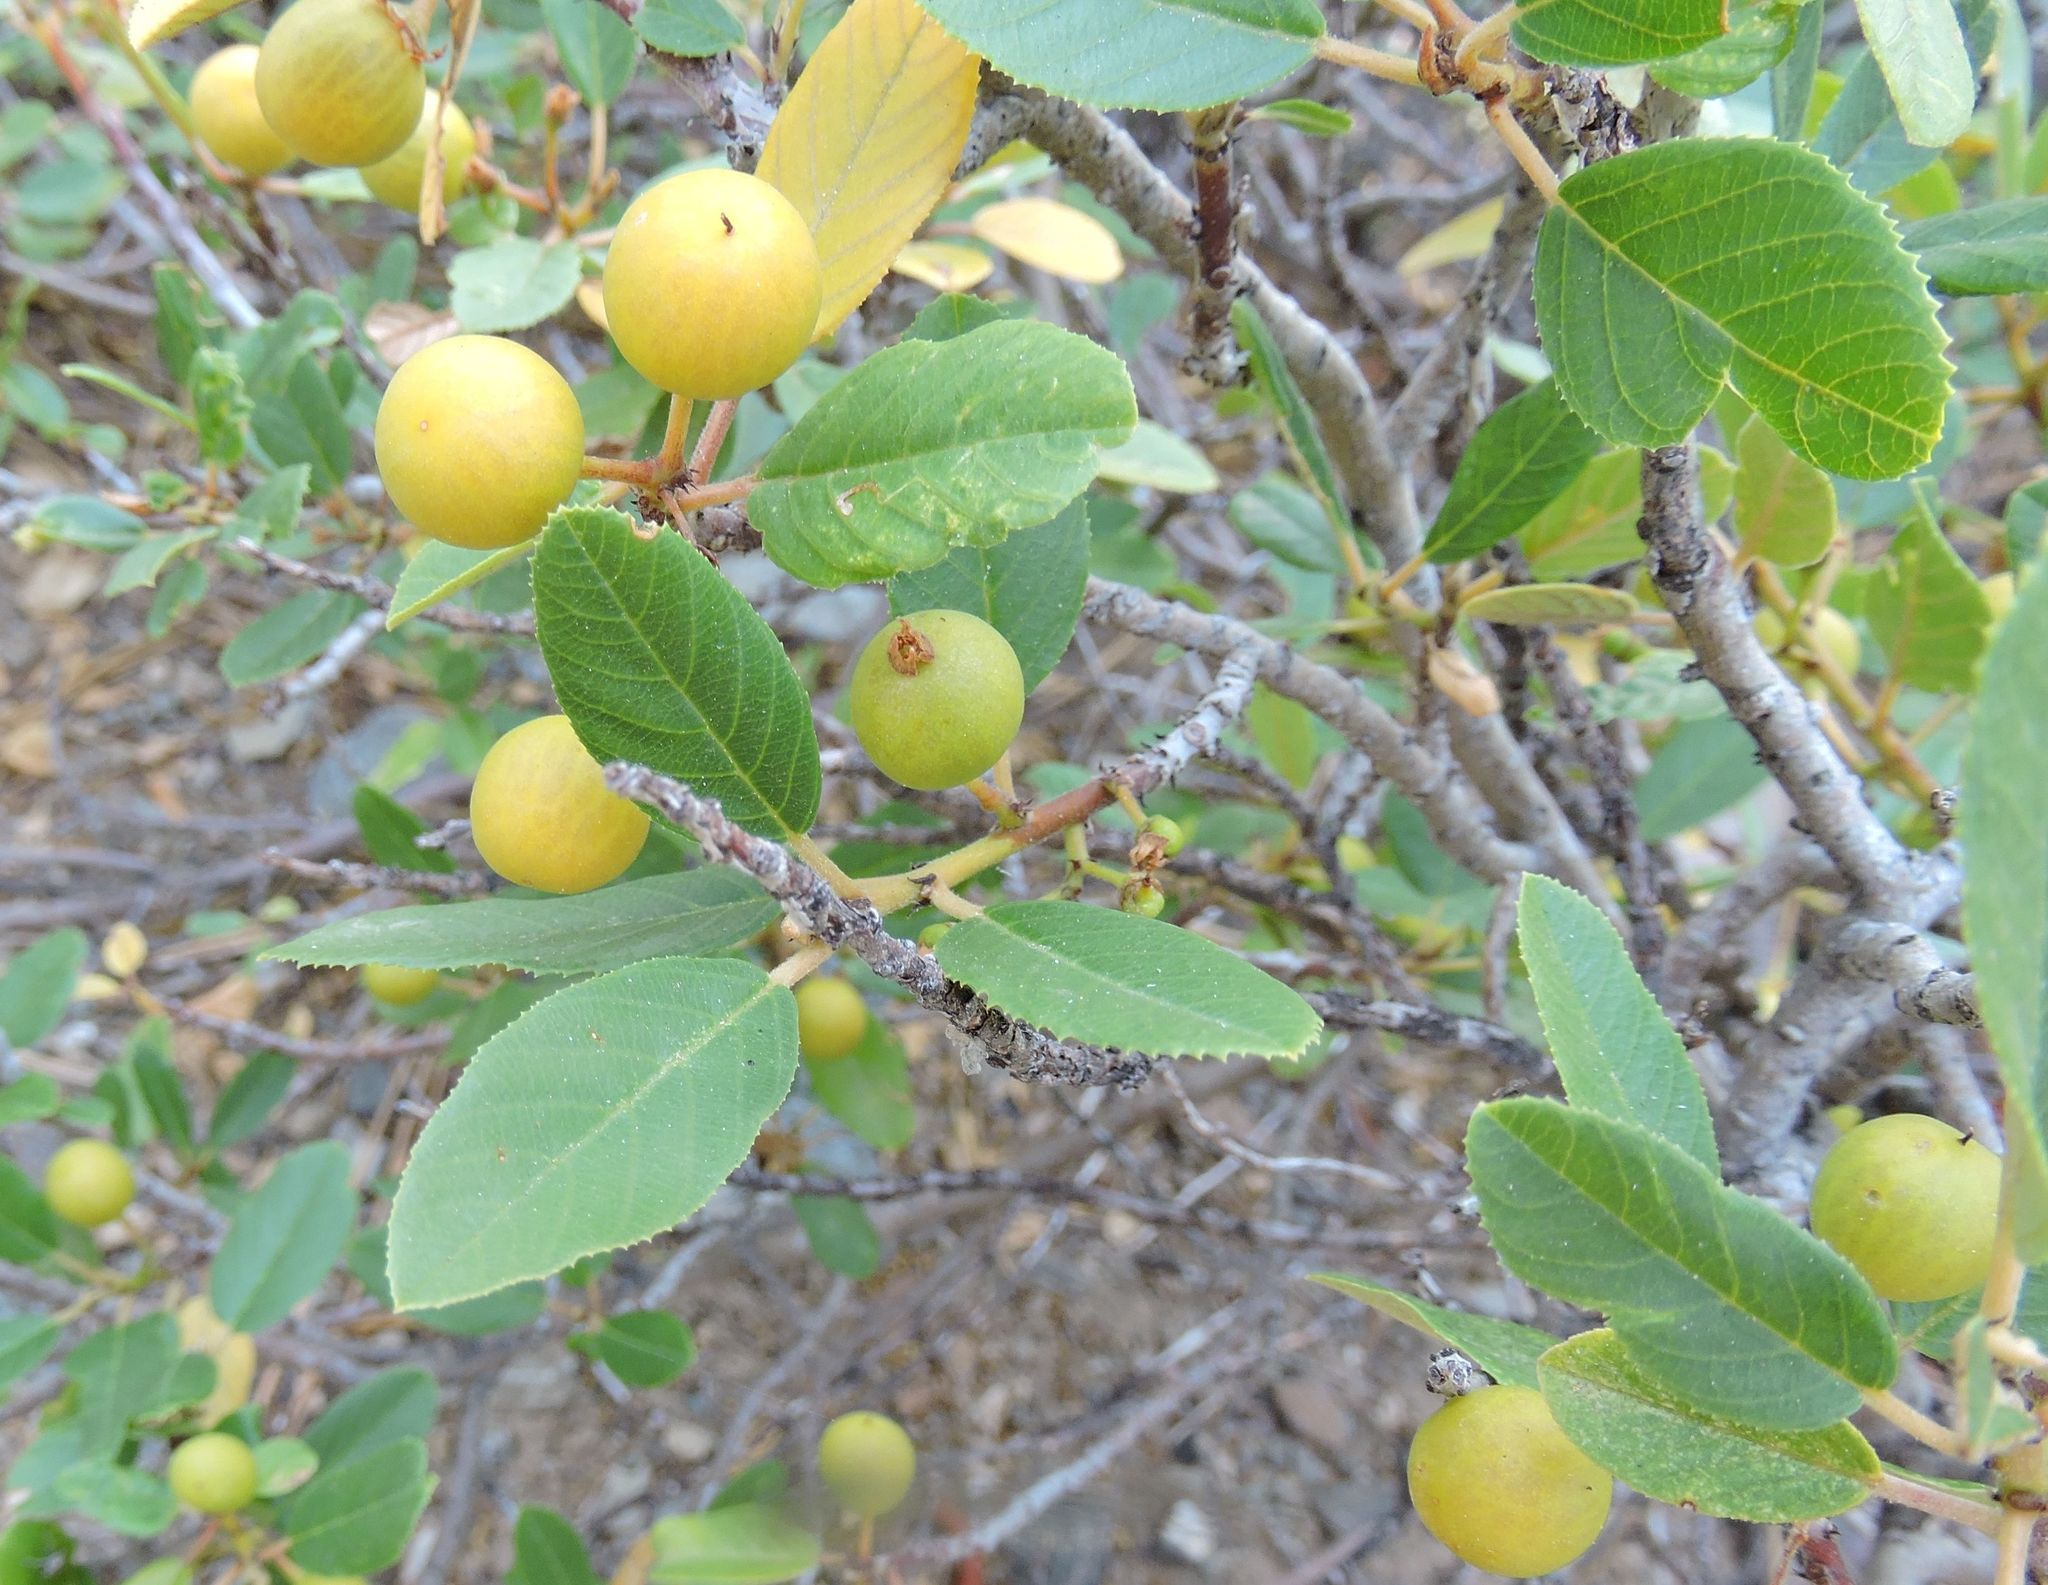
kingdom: Plantae
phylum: Tracheophyta
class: Magnoliopsida
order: Rosales
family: Rhamnaceae
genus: Frangula
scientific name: Frangula californica
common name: California buckthorn
